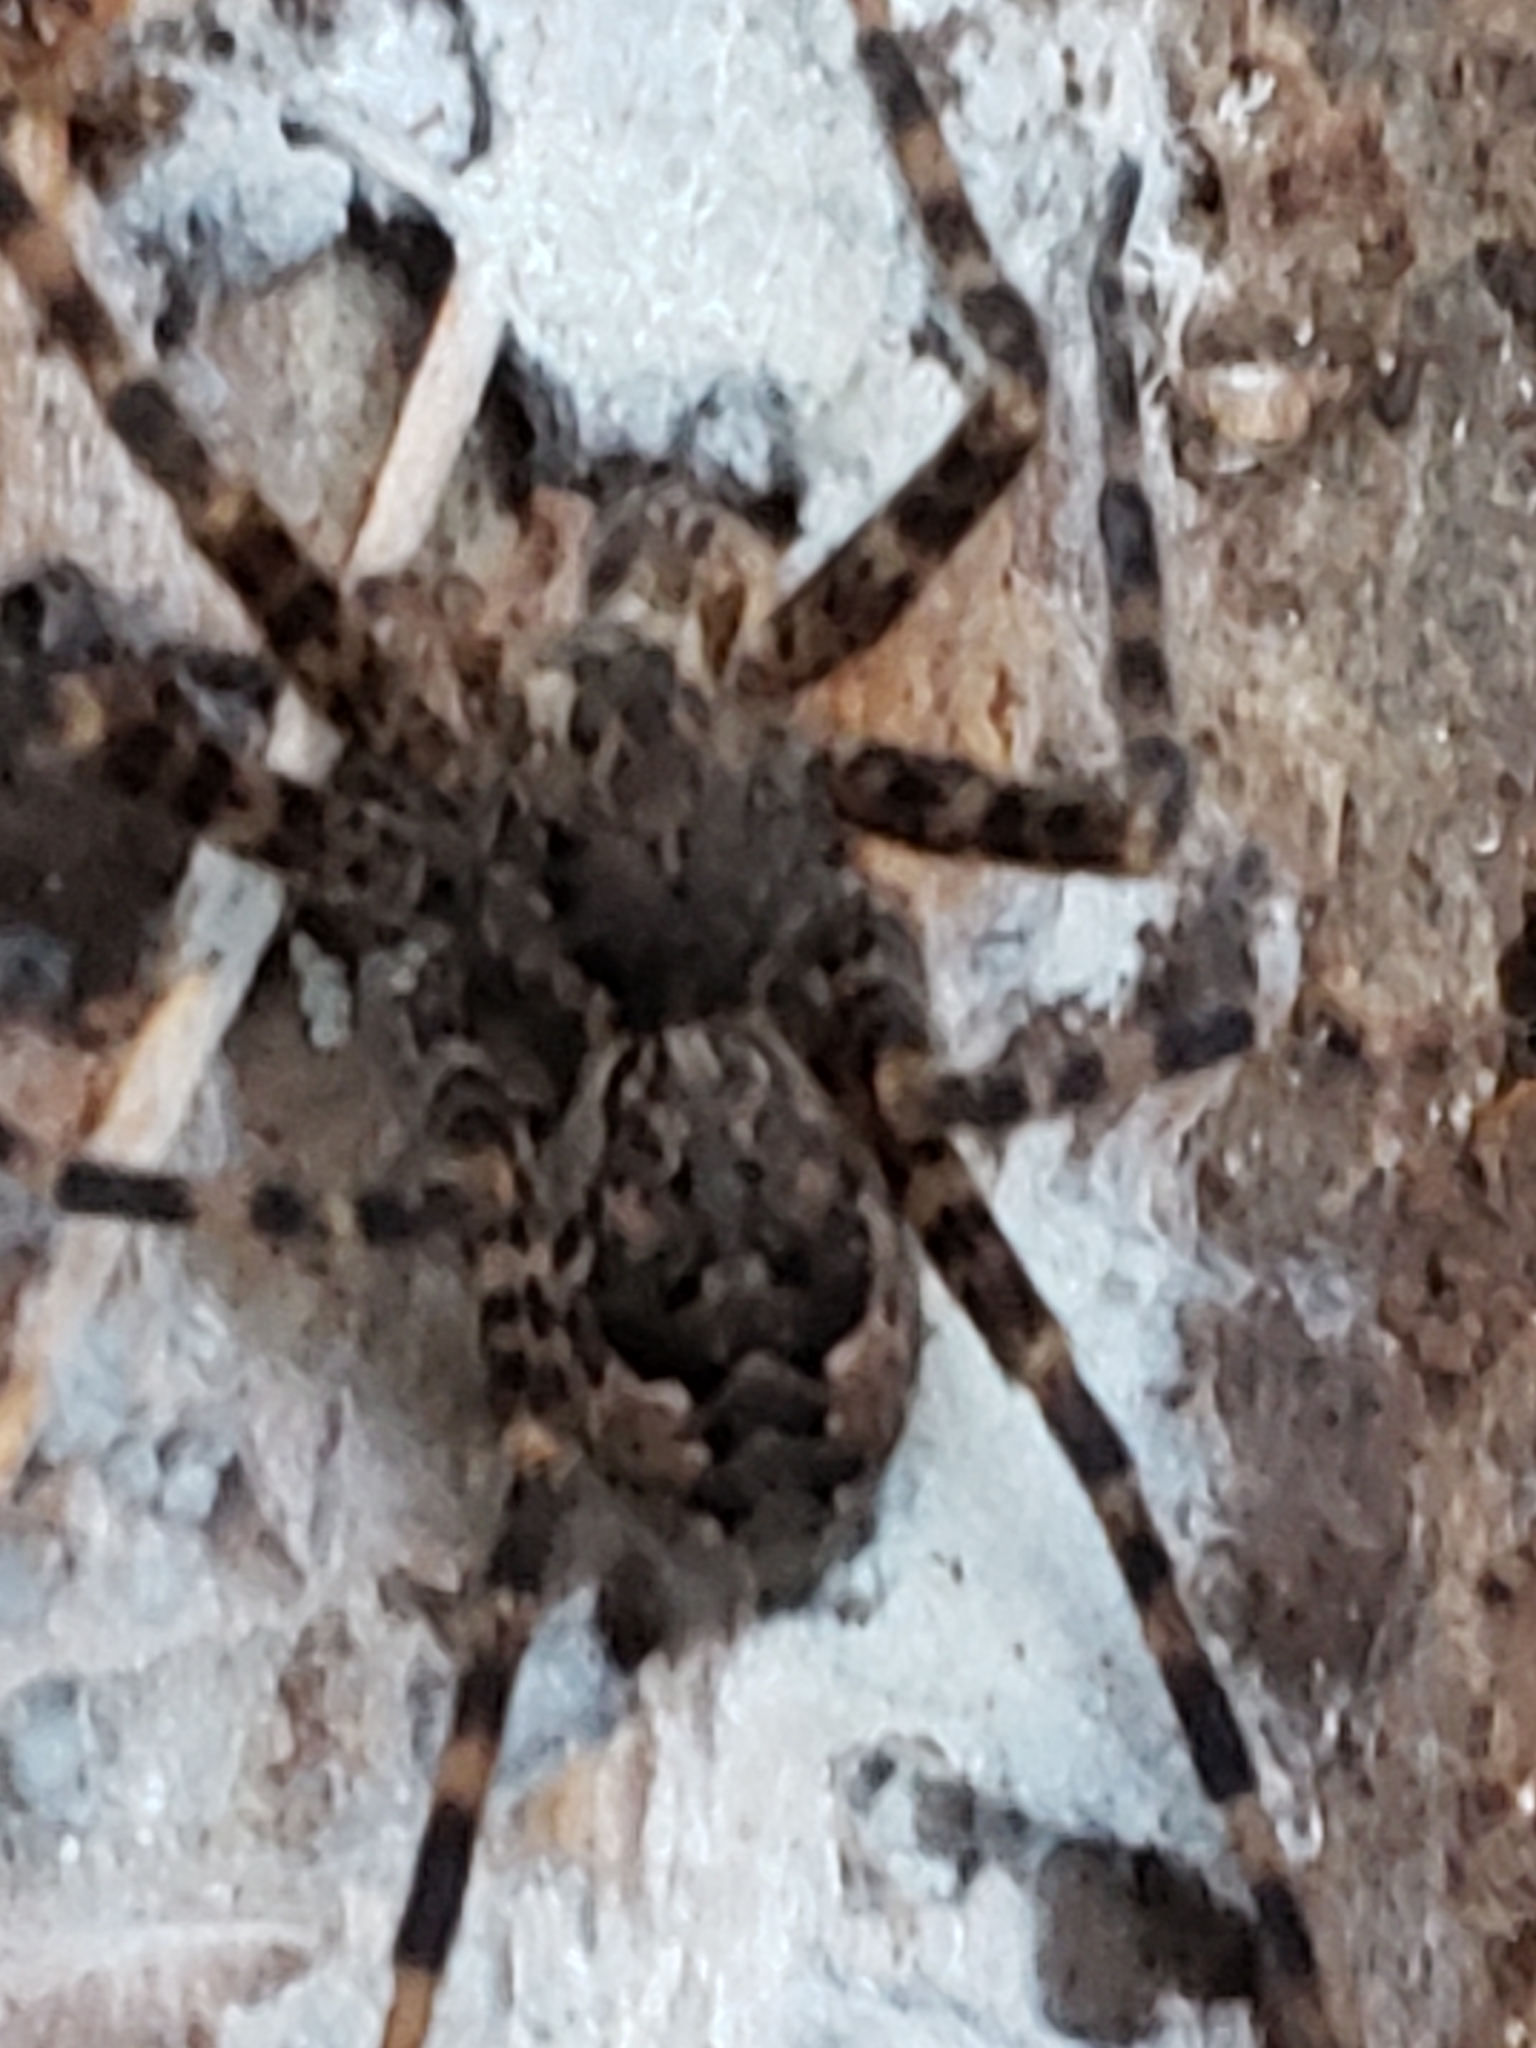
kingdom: Animalia
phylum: Arthropoda
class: Arachnida
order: Araneae
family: Pisauridae
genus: Dolomedes
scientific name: Dolomedes tenebrosus
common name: Dark fishing spider
